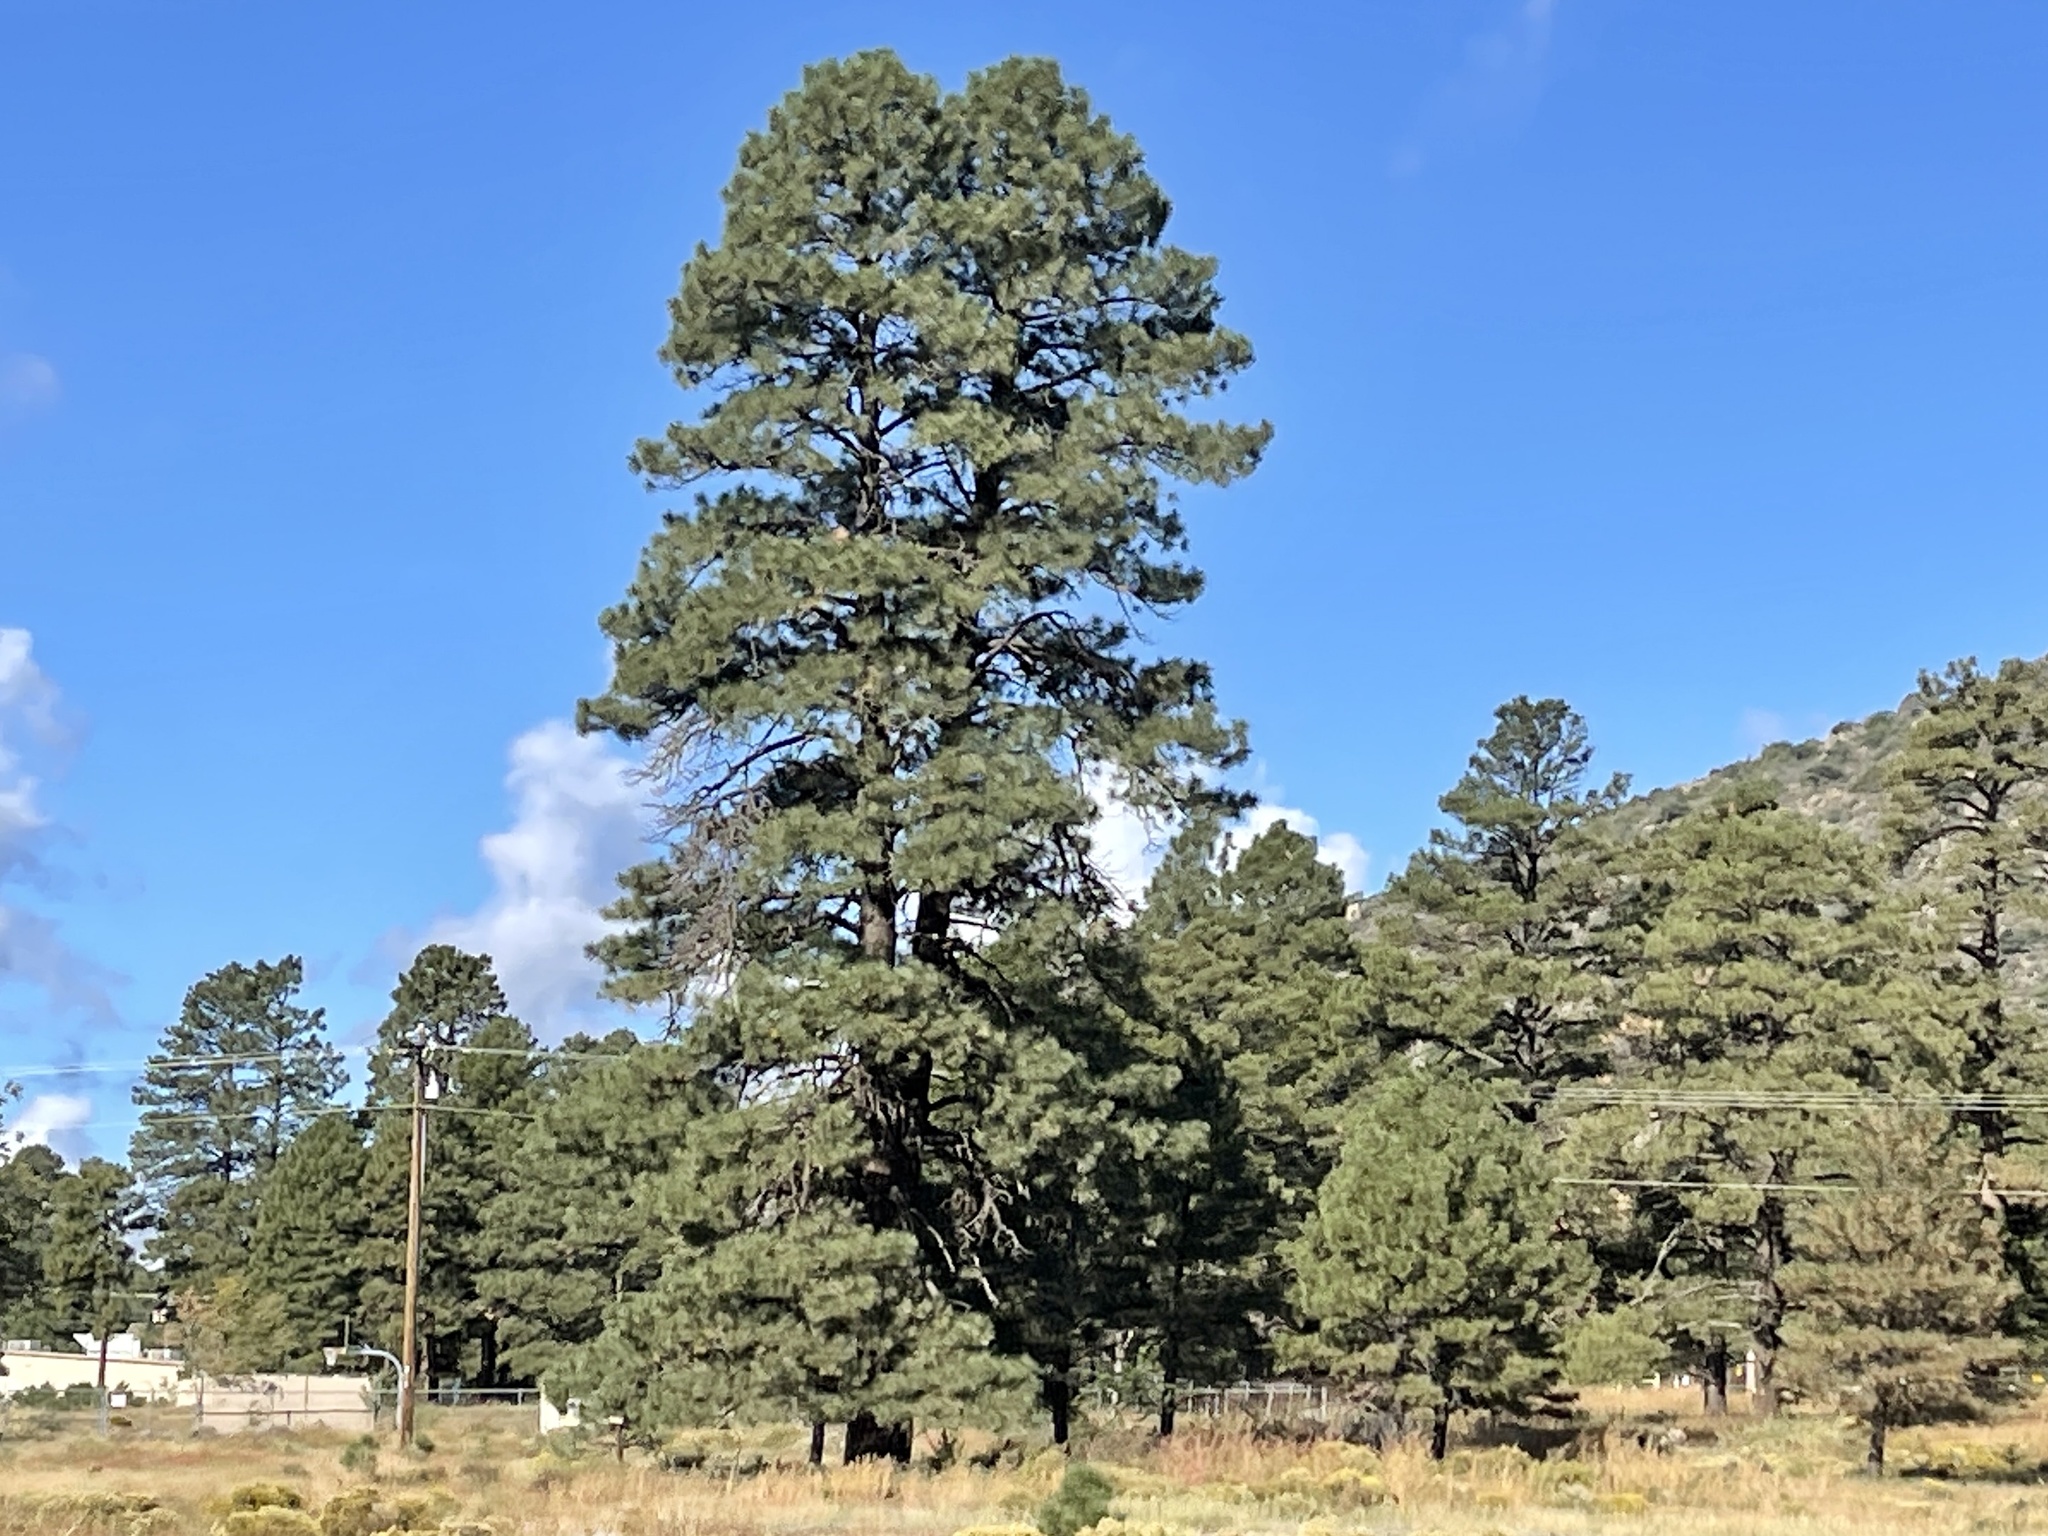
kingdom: Plantae
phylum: Tracheophyta
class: Pinopsida
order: Pinales
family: Pinaceae
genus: Pinus
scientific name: Pinus ponderosa
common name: Western yellow-pine
